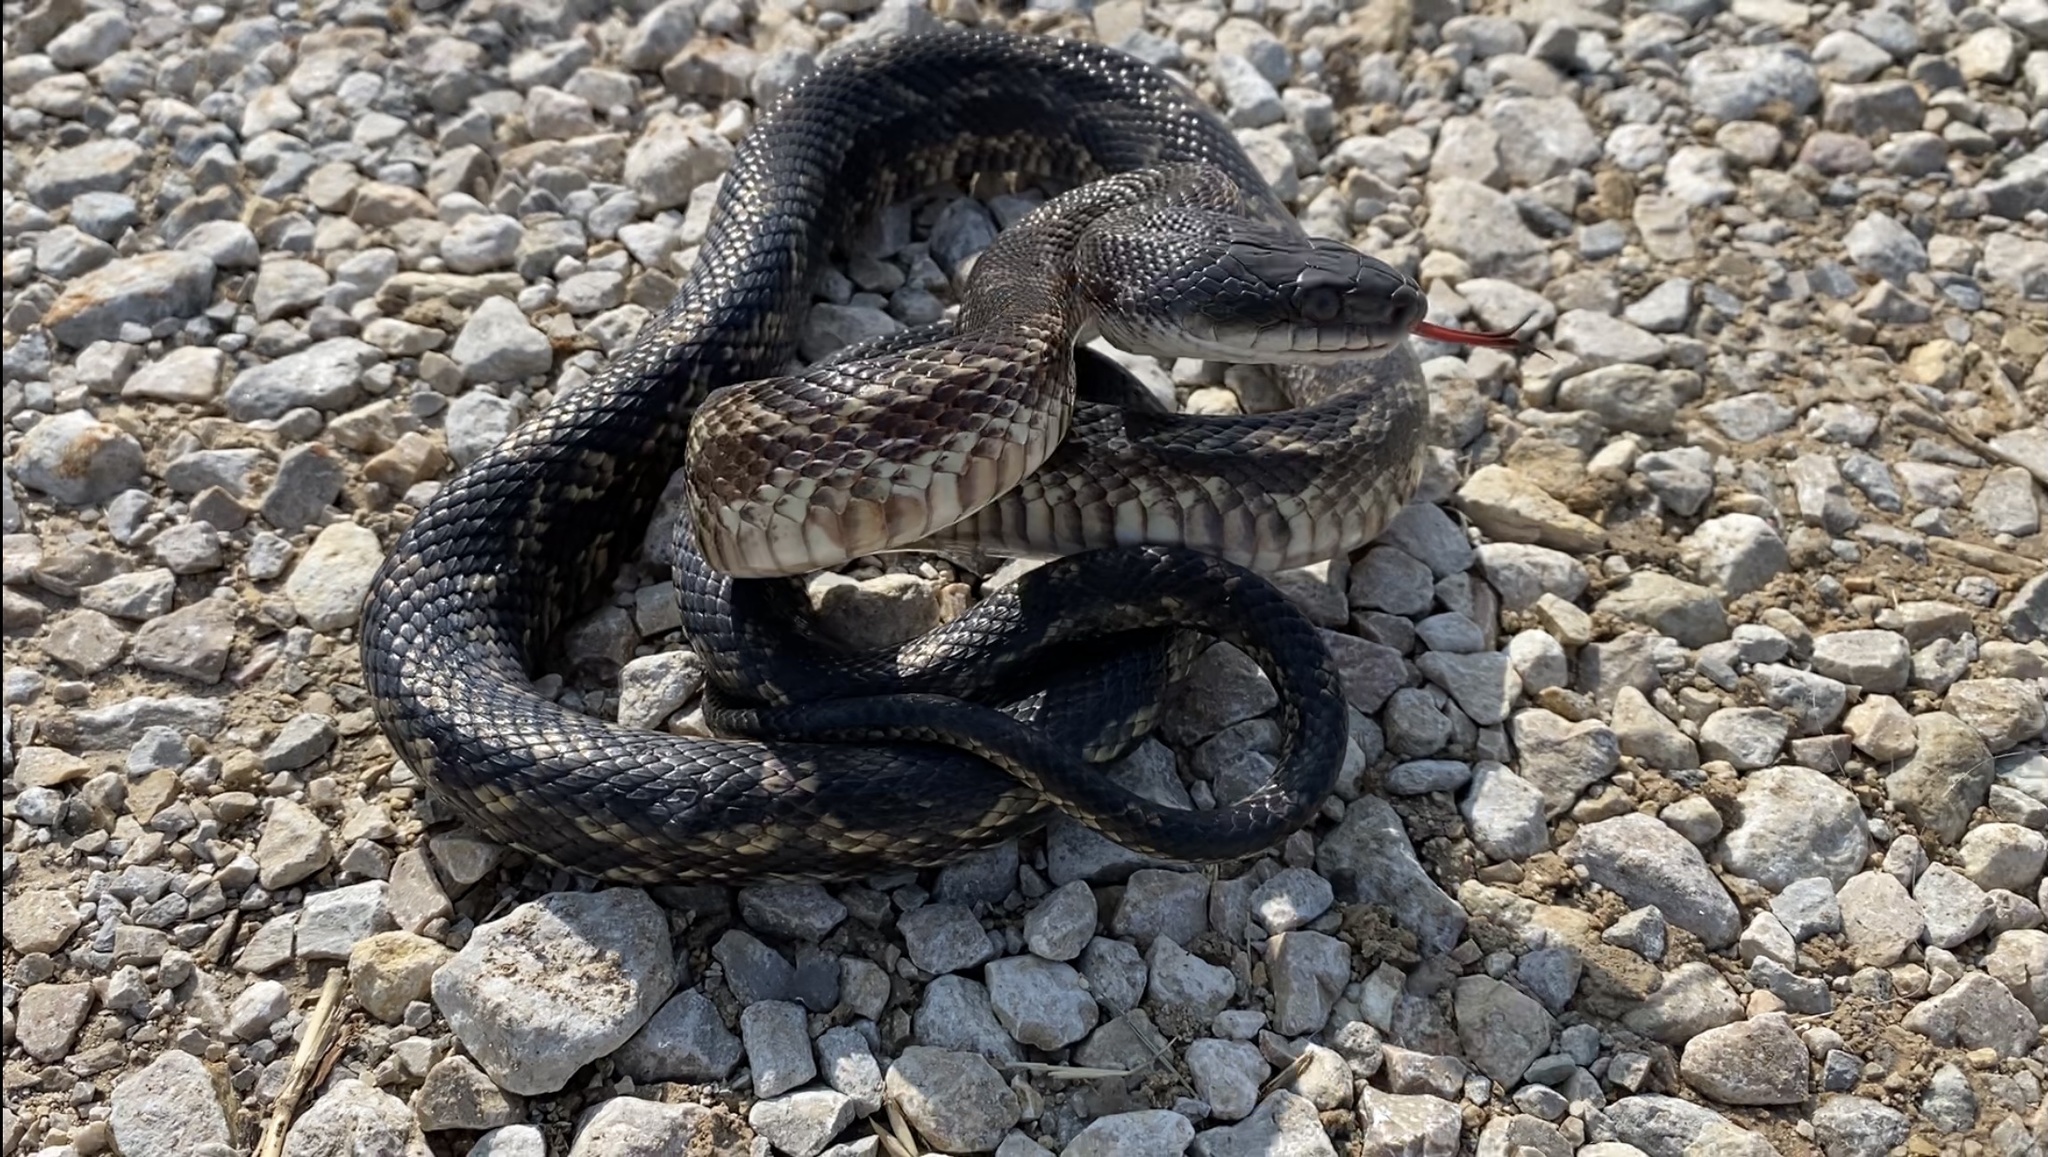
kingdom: Animalia
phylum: Chordata
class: Squamata
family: Colubridae
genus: Pantherophis
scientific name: Pantherophis obsoletus
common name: Black rat snake
